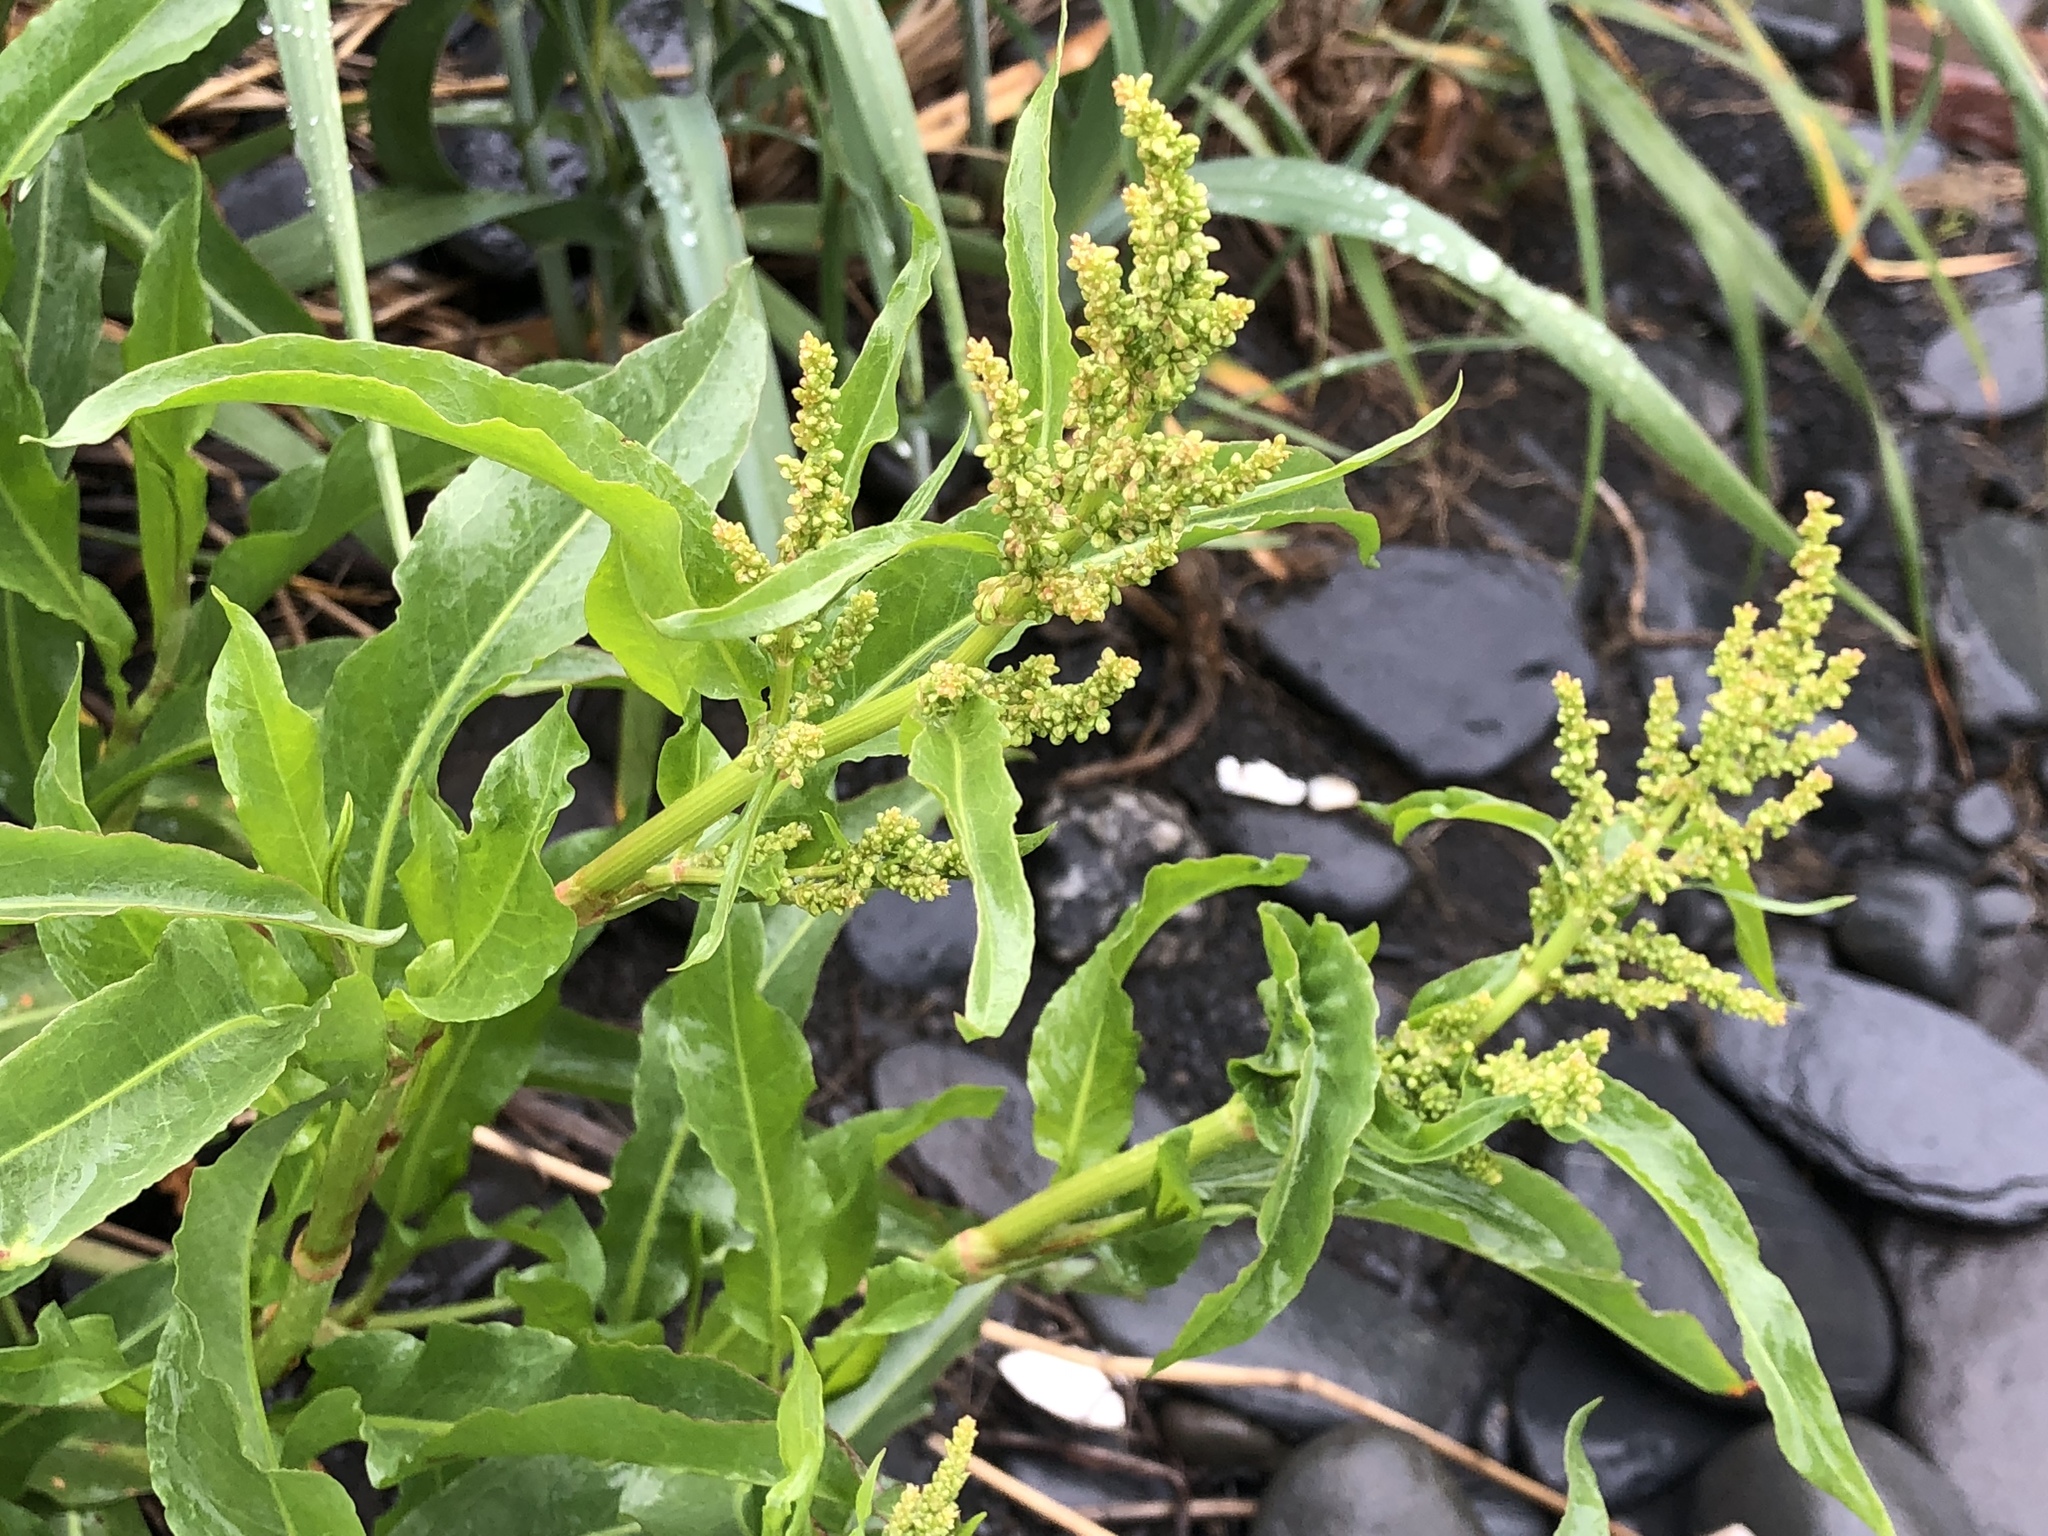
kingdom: Plantae
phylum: Tracheophyta
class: Magnoliopsida
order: Caryophyllales
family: Polygonaceae
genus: Rumex
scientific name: Rumex transitorius
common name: Pacific willow dock
